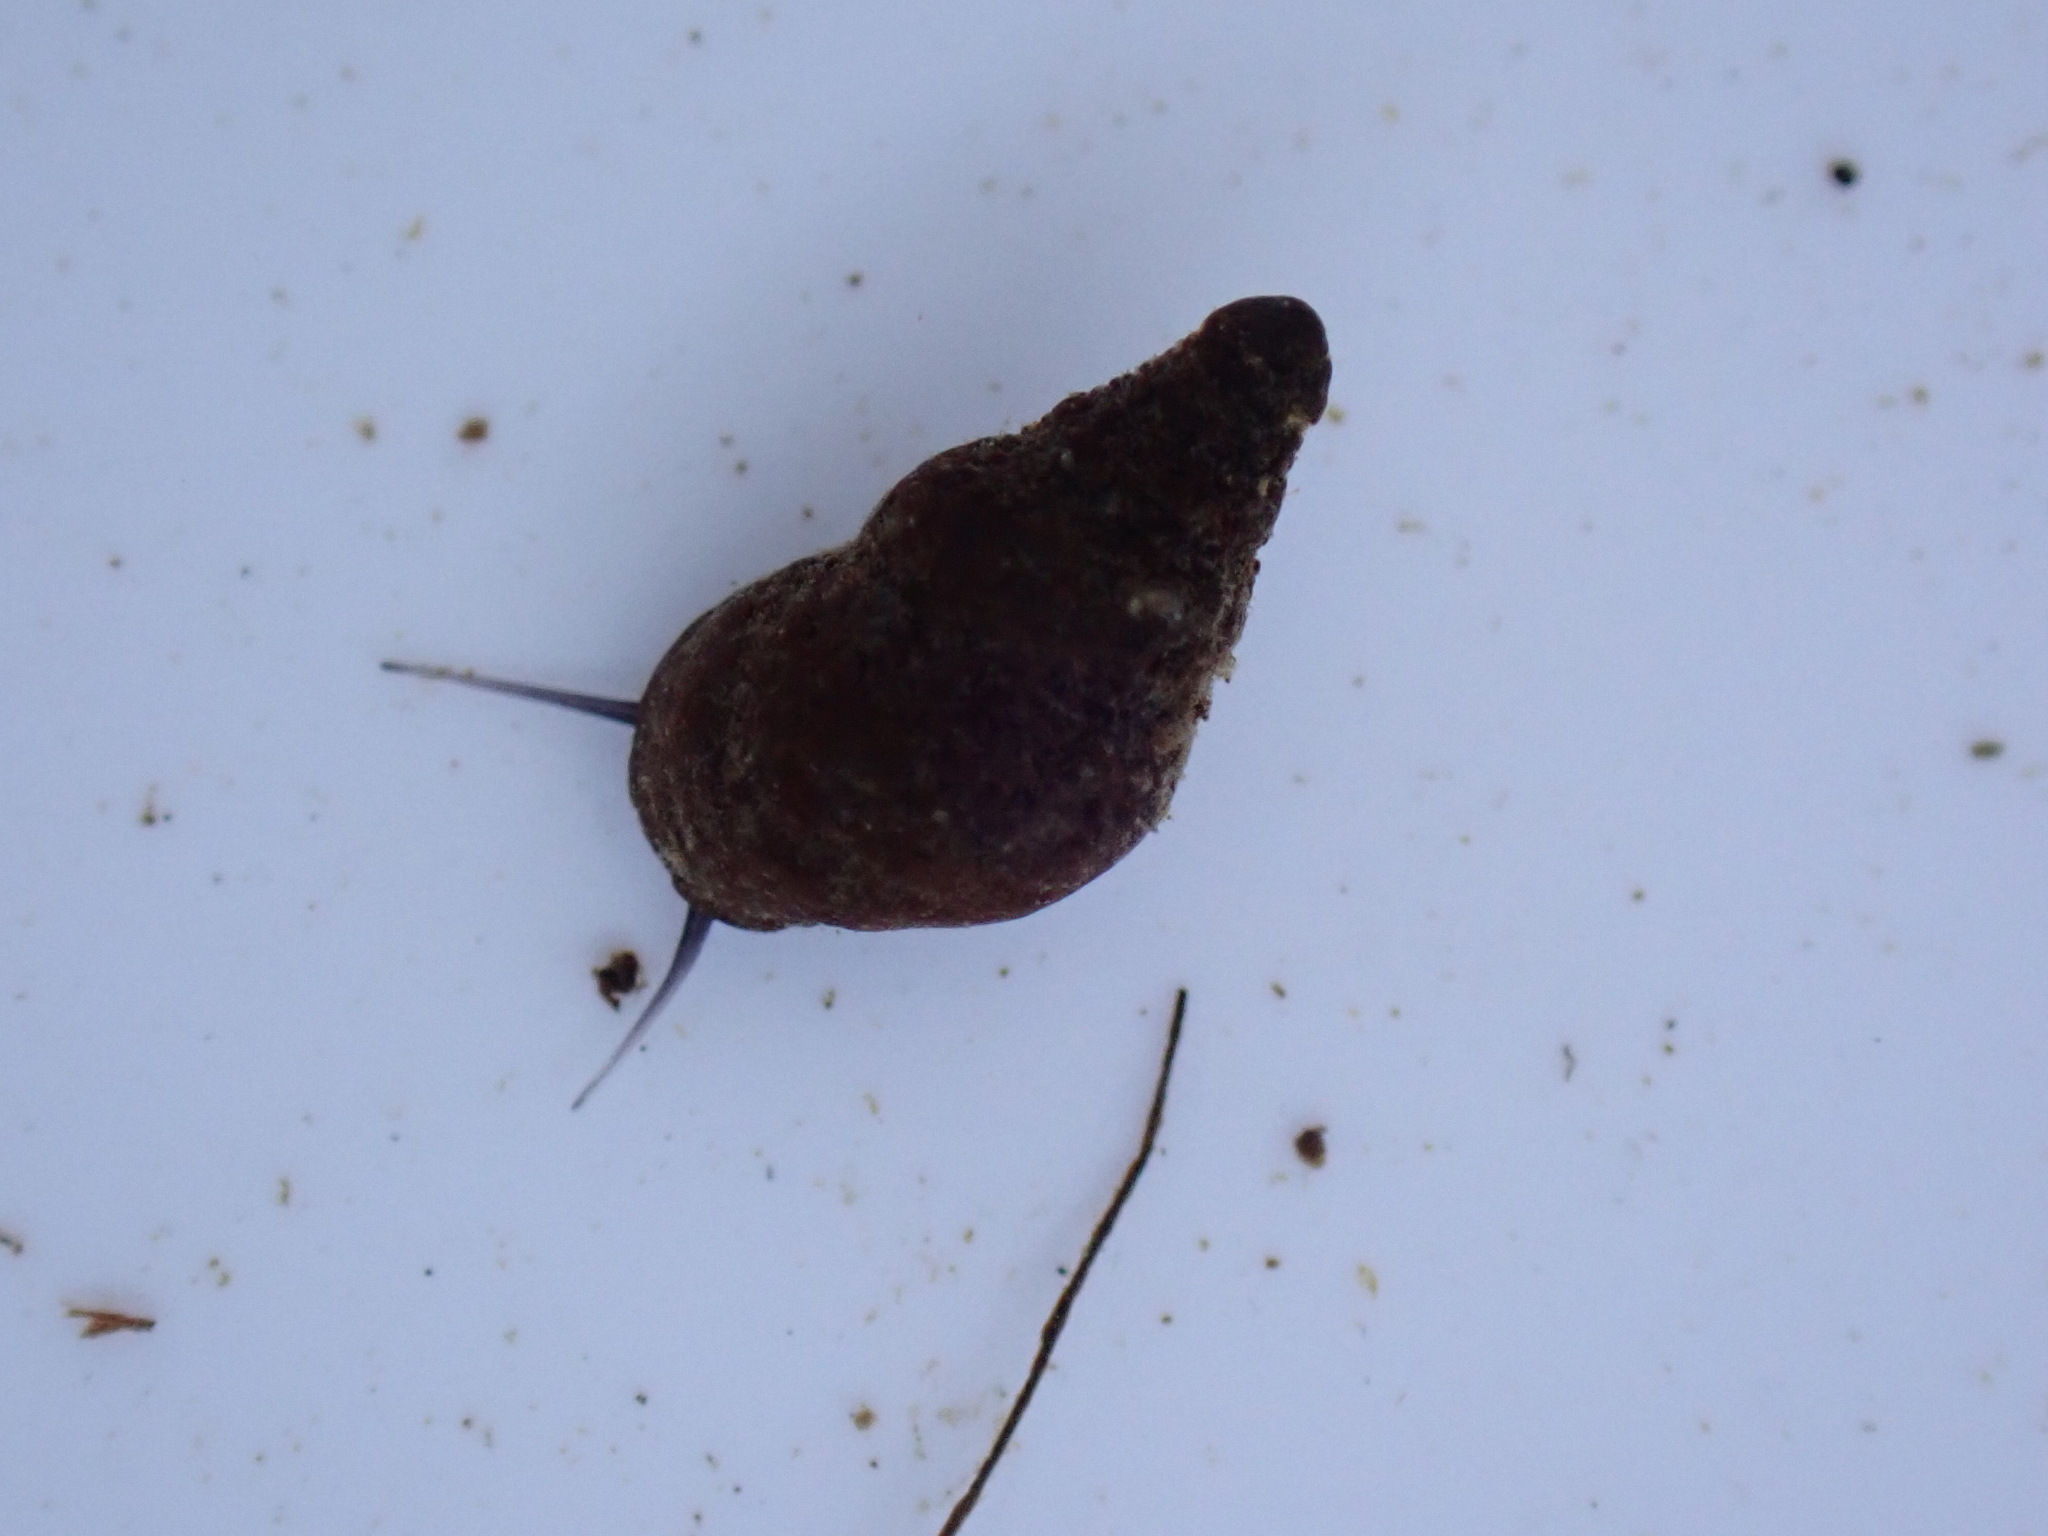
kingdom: Animalia
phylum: Mollusca
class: Gastropoda
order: Littorinimorpha
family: Tateidae
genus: Potamopyrgus
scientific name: Potamopyrgus antipodarum
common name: Jenkins' spire snail
